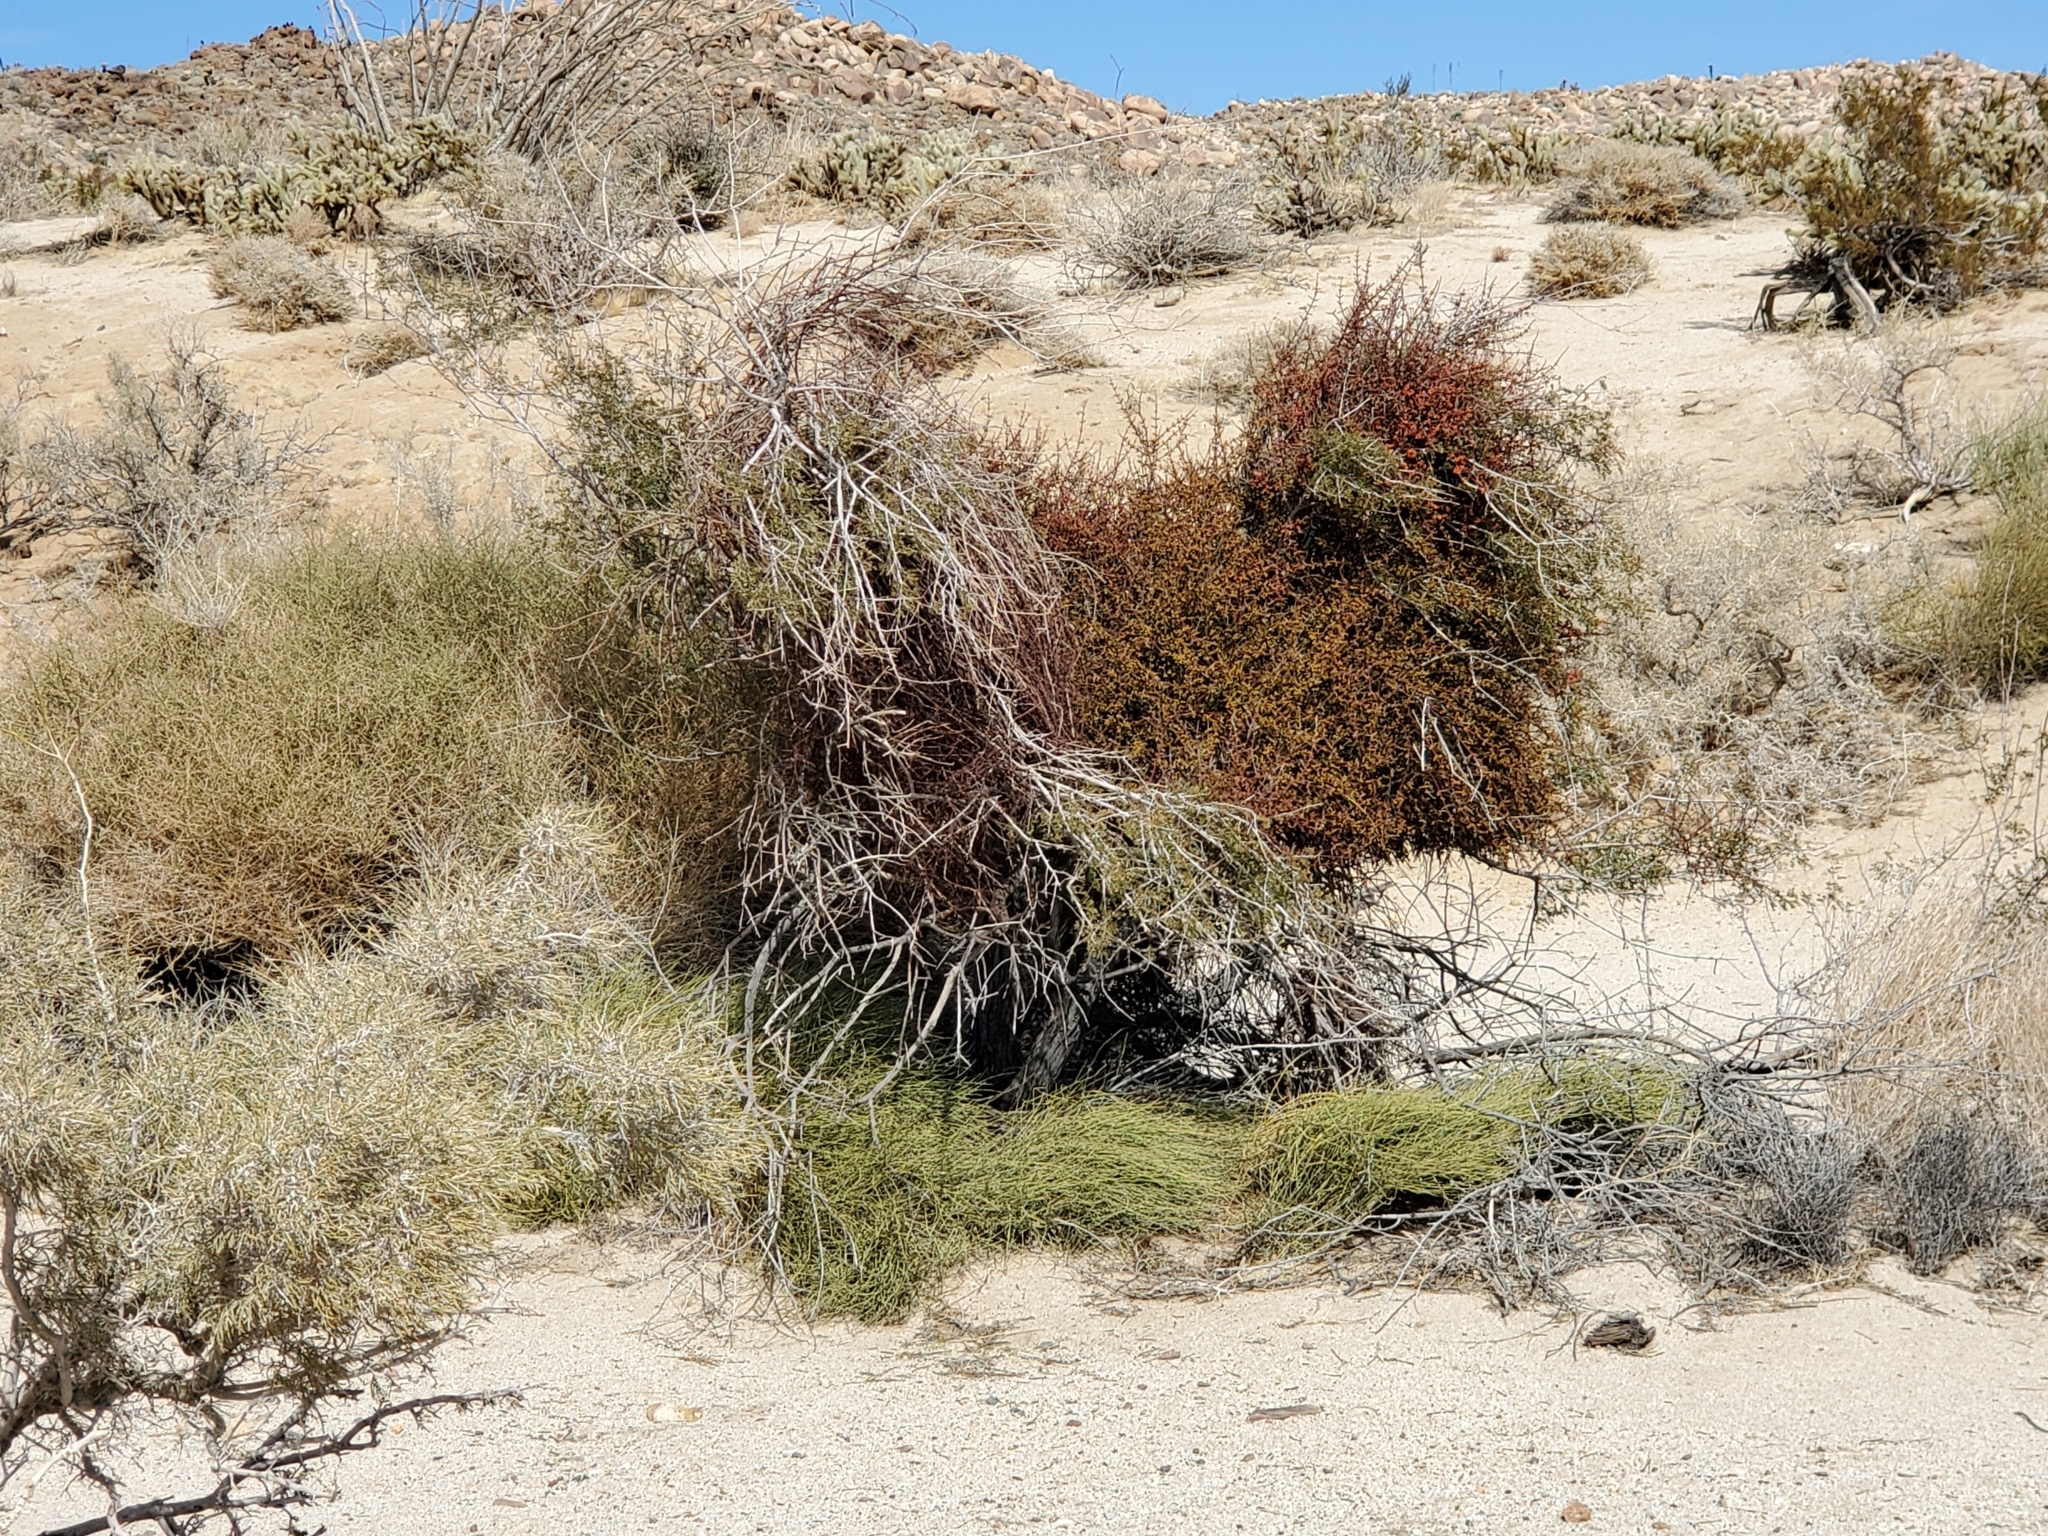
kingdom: Plantae
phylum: Tracheophyta
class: Magnoliopsida
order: Santalales
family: Viscaceae
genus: Phoradendron
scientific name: Phoradendron californicum
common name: Acacia mistletoe
